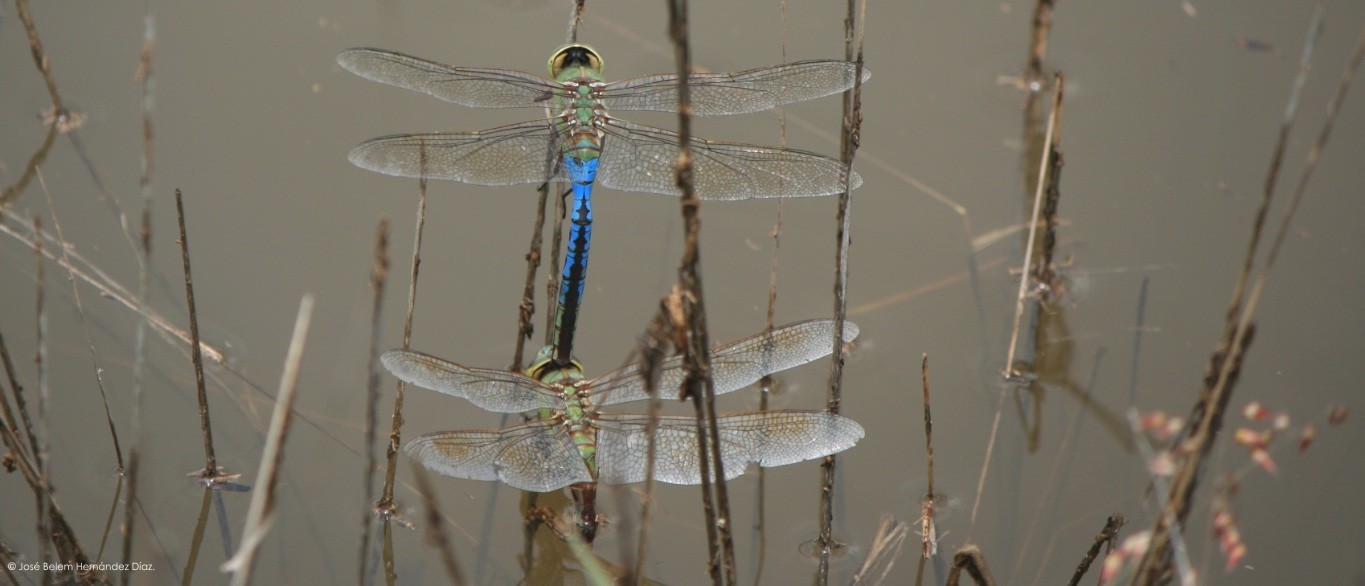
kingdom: Animalia
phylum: Arthropoda
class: Insecta
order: Odonata
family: Aeshnidae
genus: Anax
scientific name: Anax junius
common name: Common green darner
